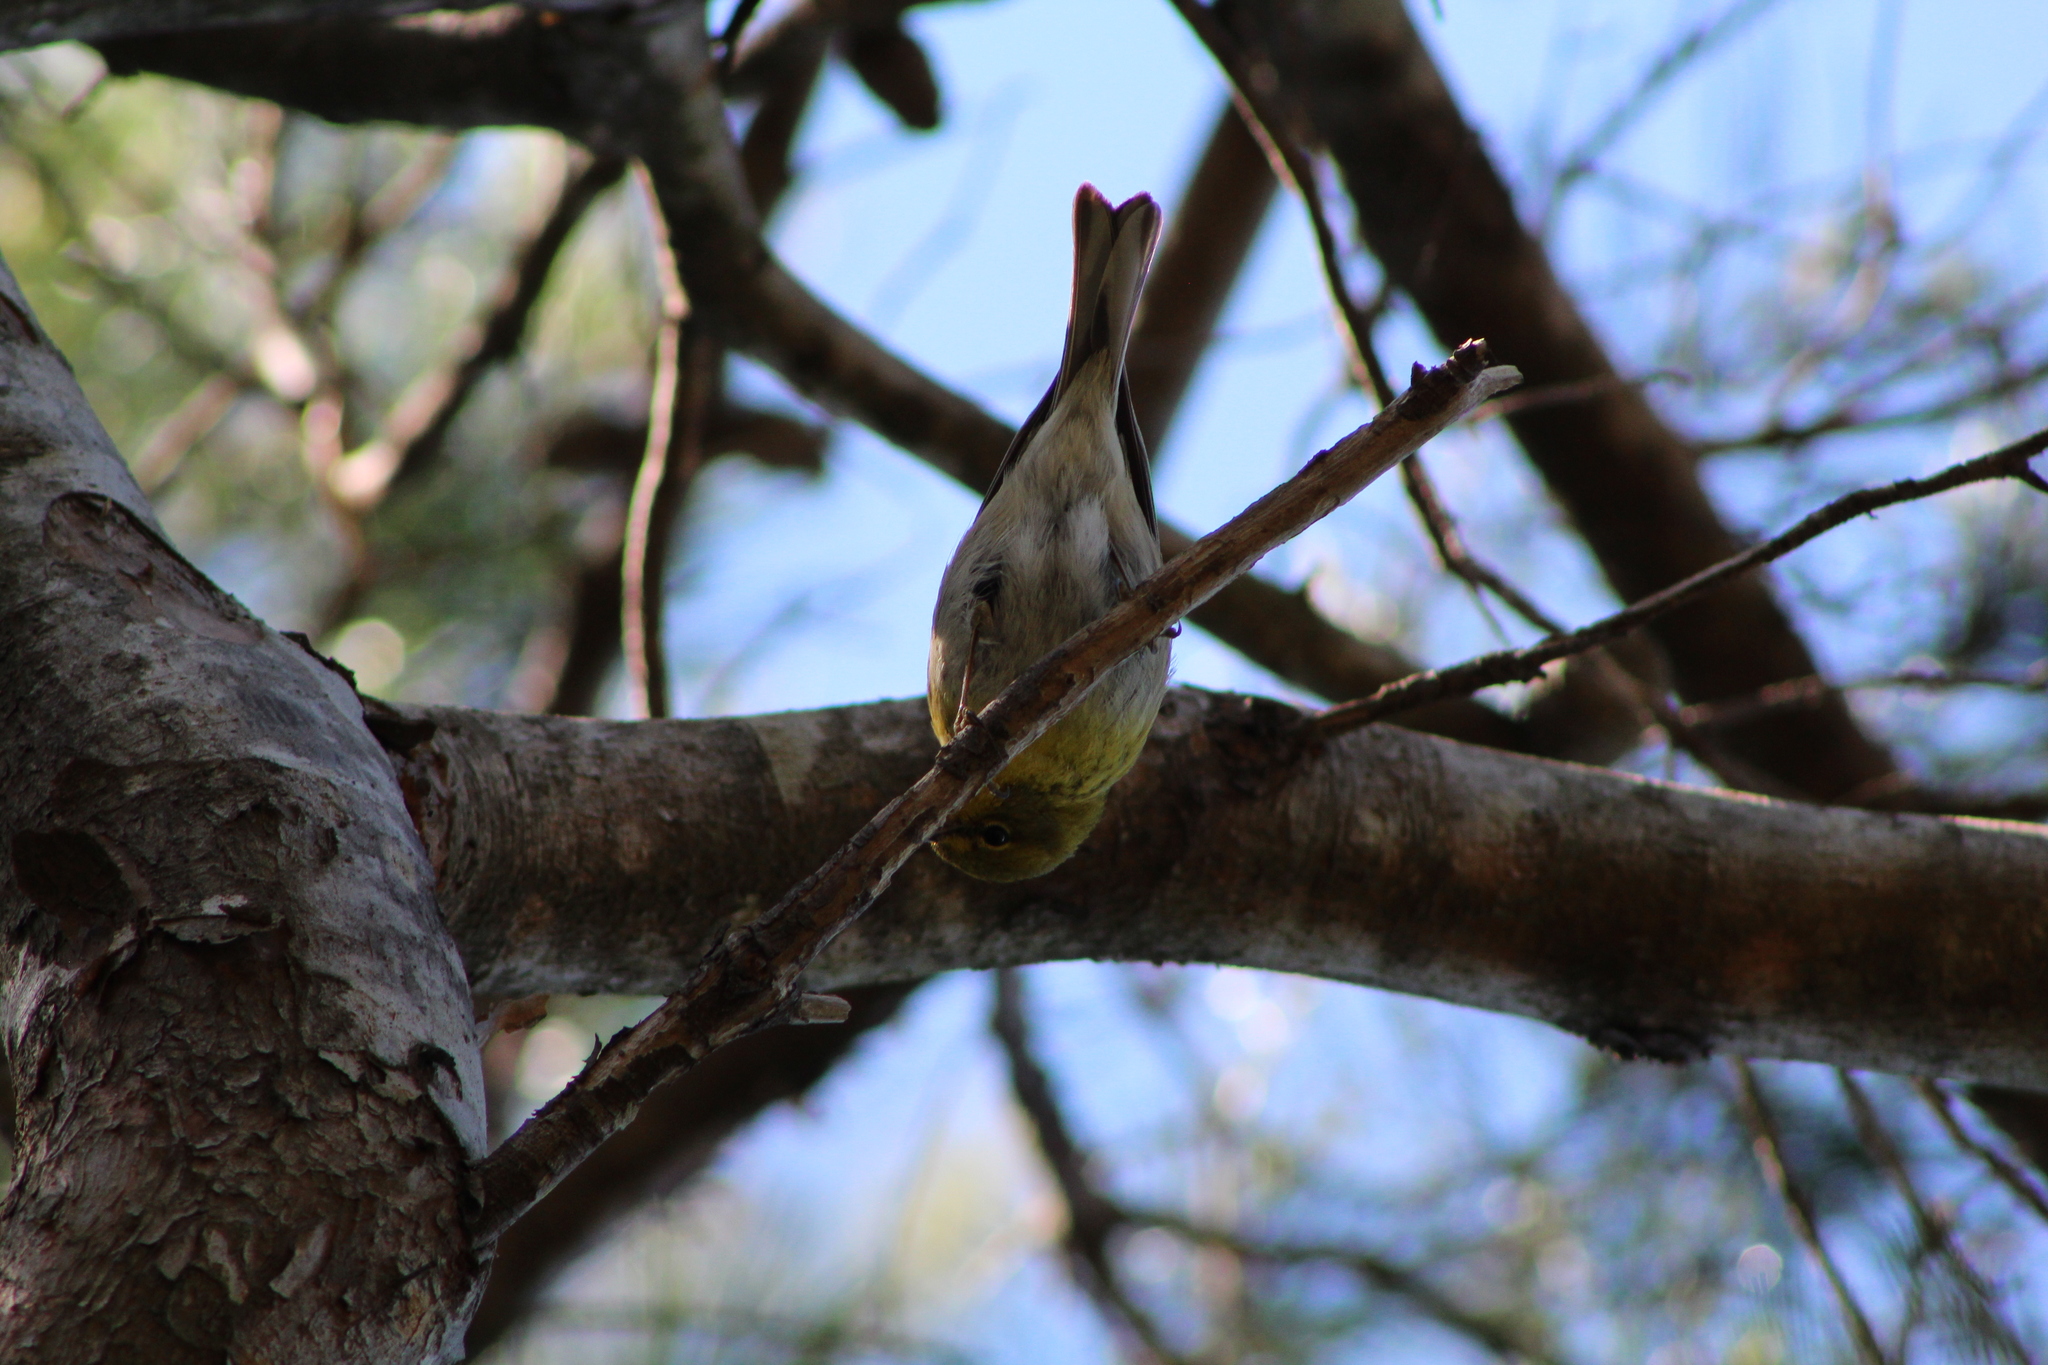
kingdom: Animalia
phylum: Chordata
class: Aves
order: Passeriformes
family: Parulidae
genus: Setophaga
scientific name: Setophaga pinus
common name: Pine warbler
